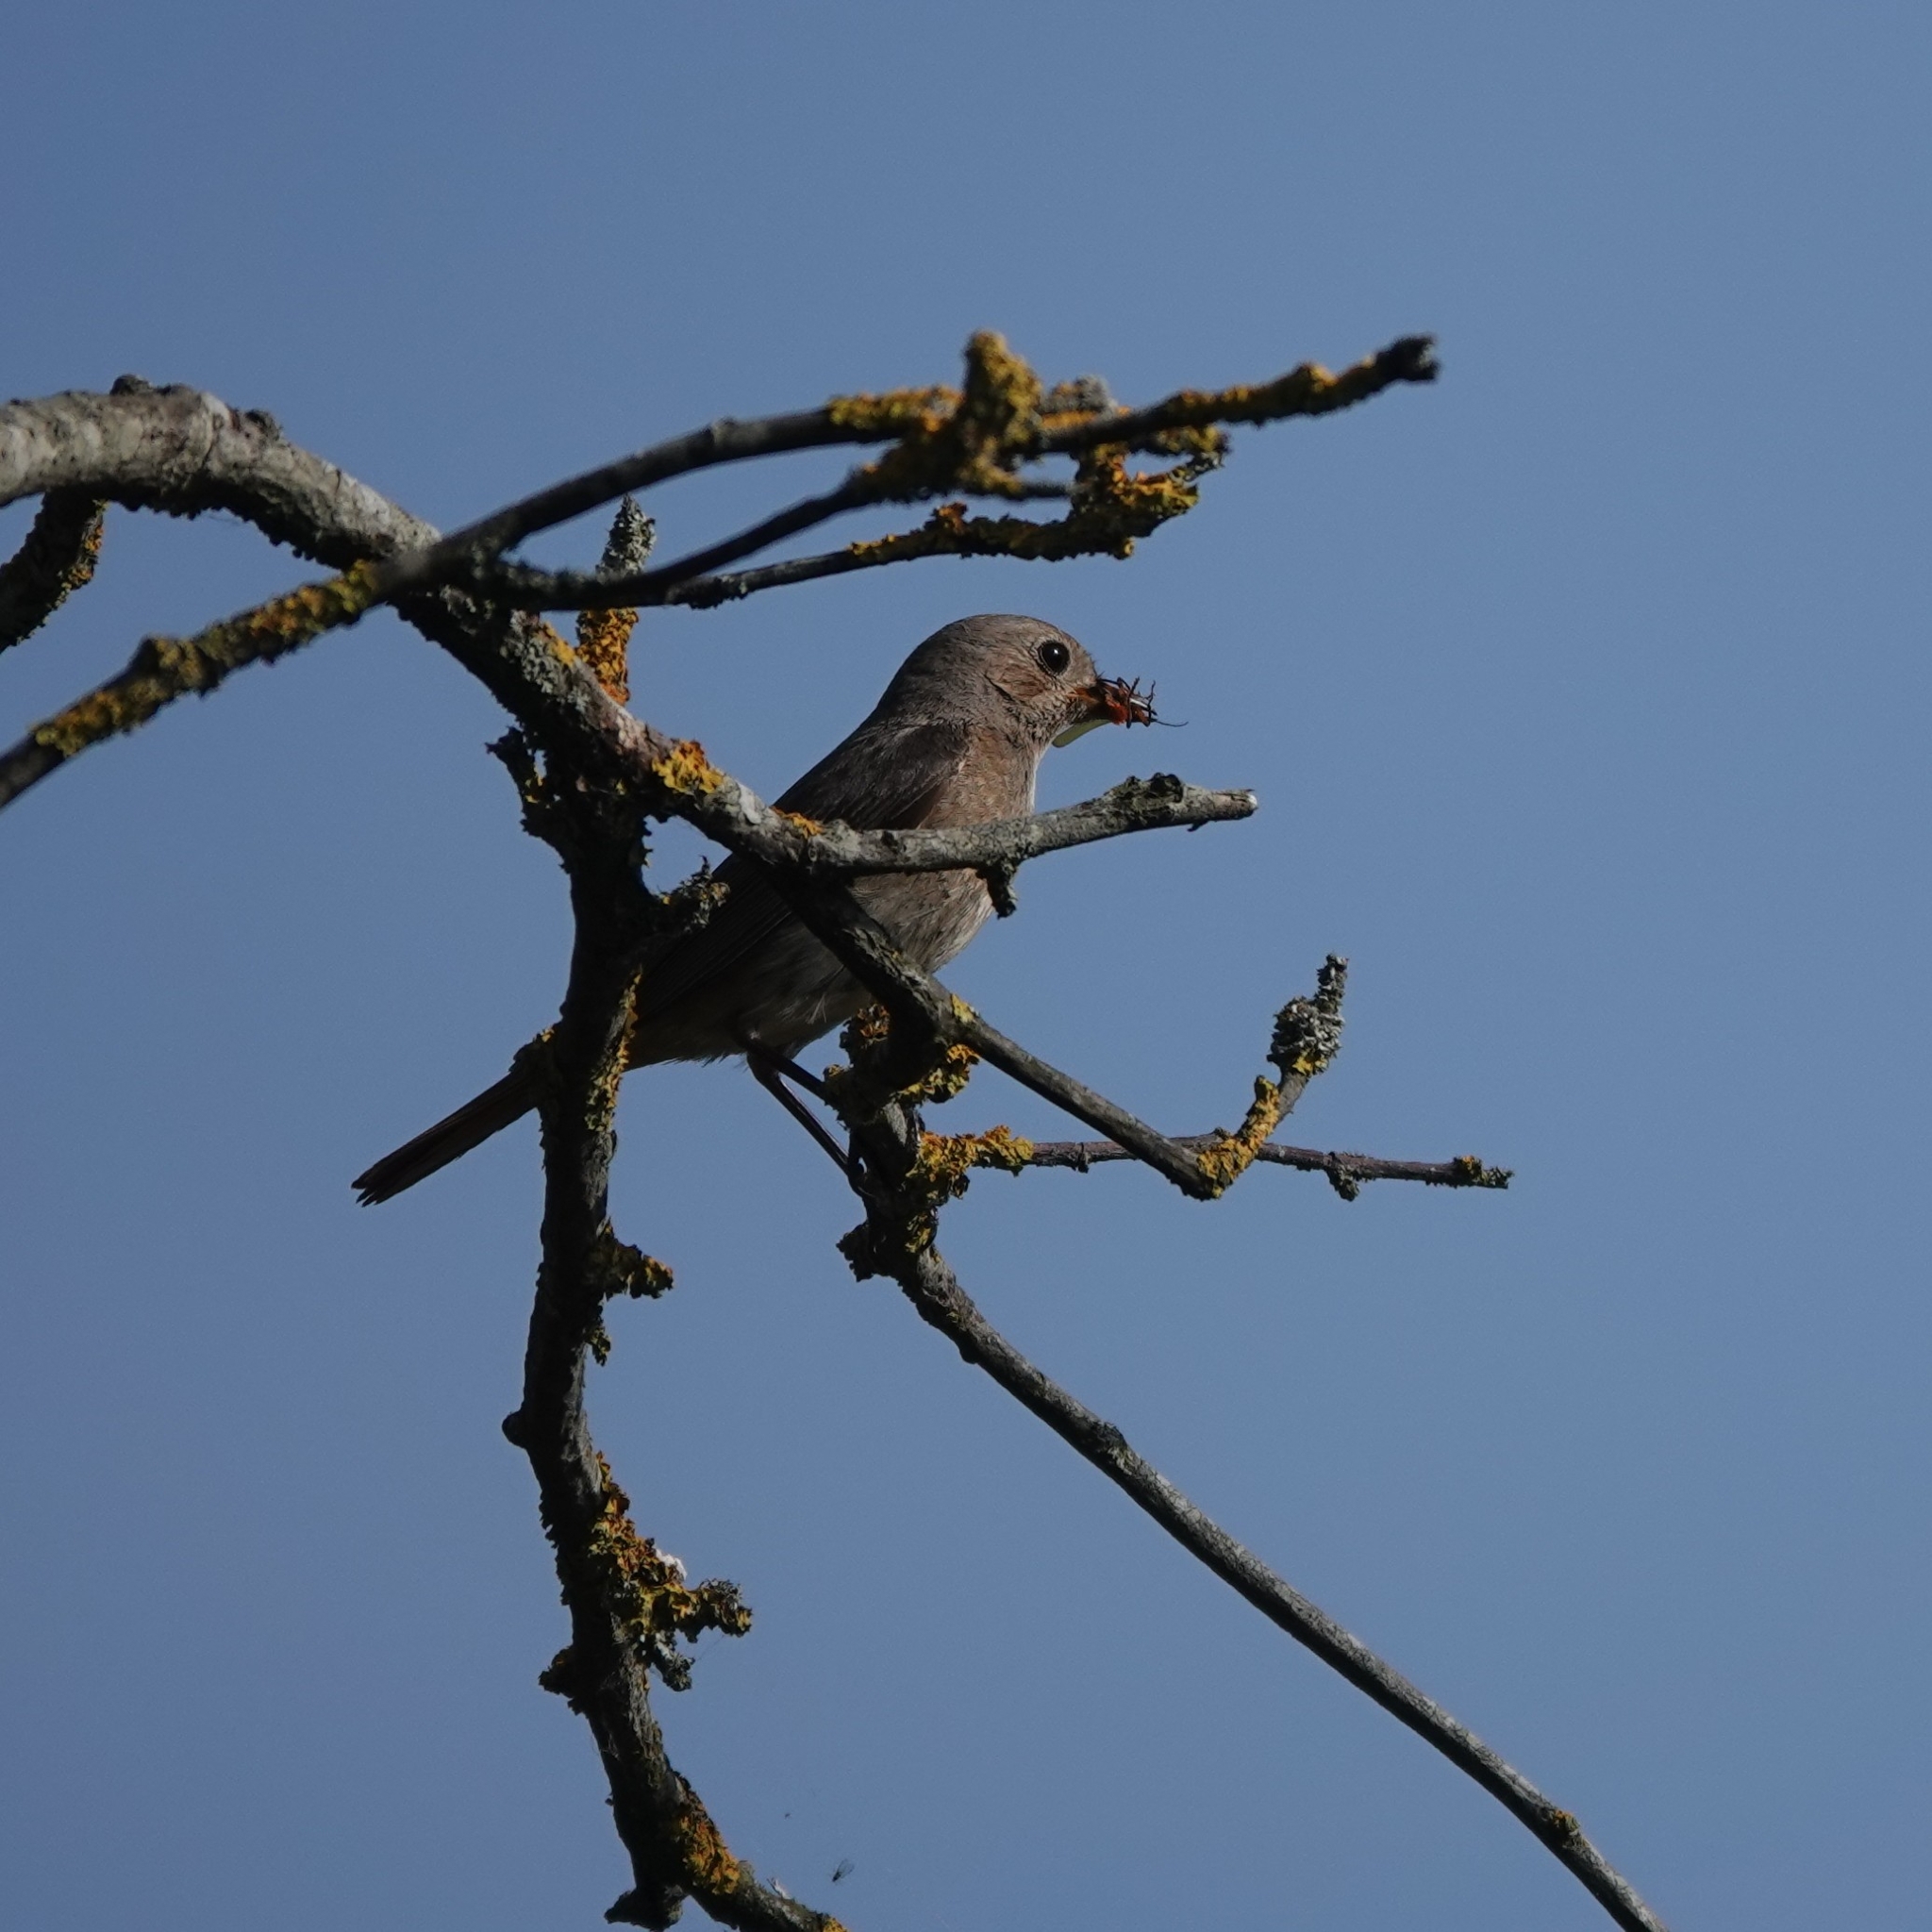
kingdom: Animalia
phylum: Chordata
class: Aves
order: Passeriformes
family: Muscicapidae
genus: Phoenicurus
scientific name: Phoenicurus phoenicurus
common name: Common redstart
